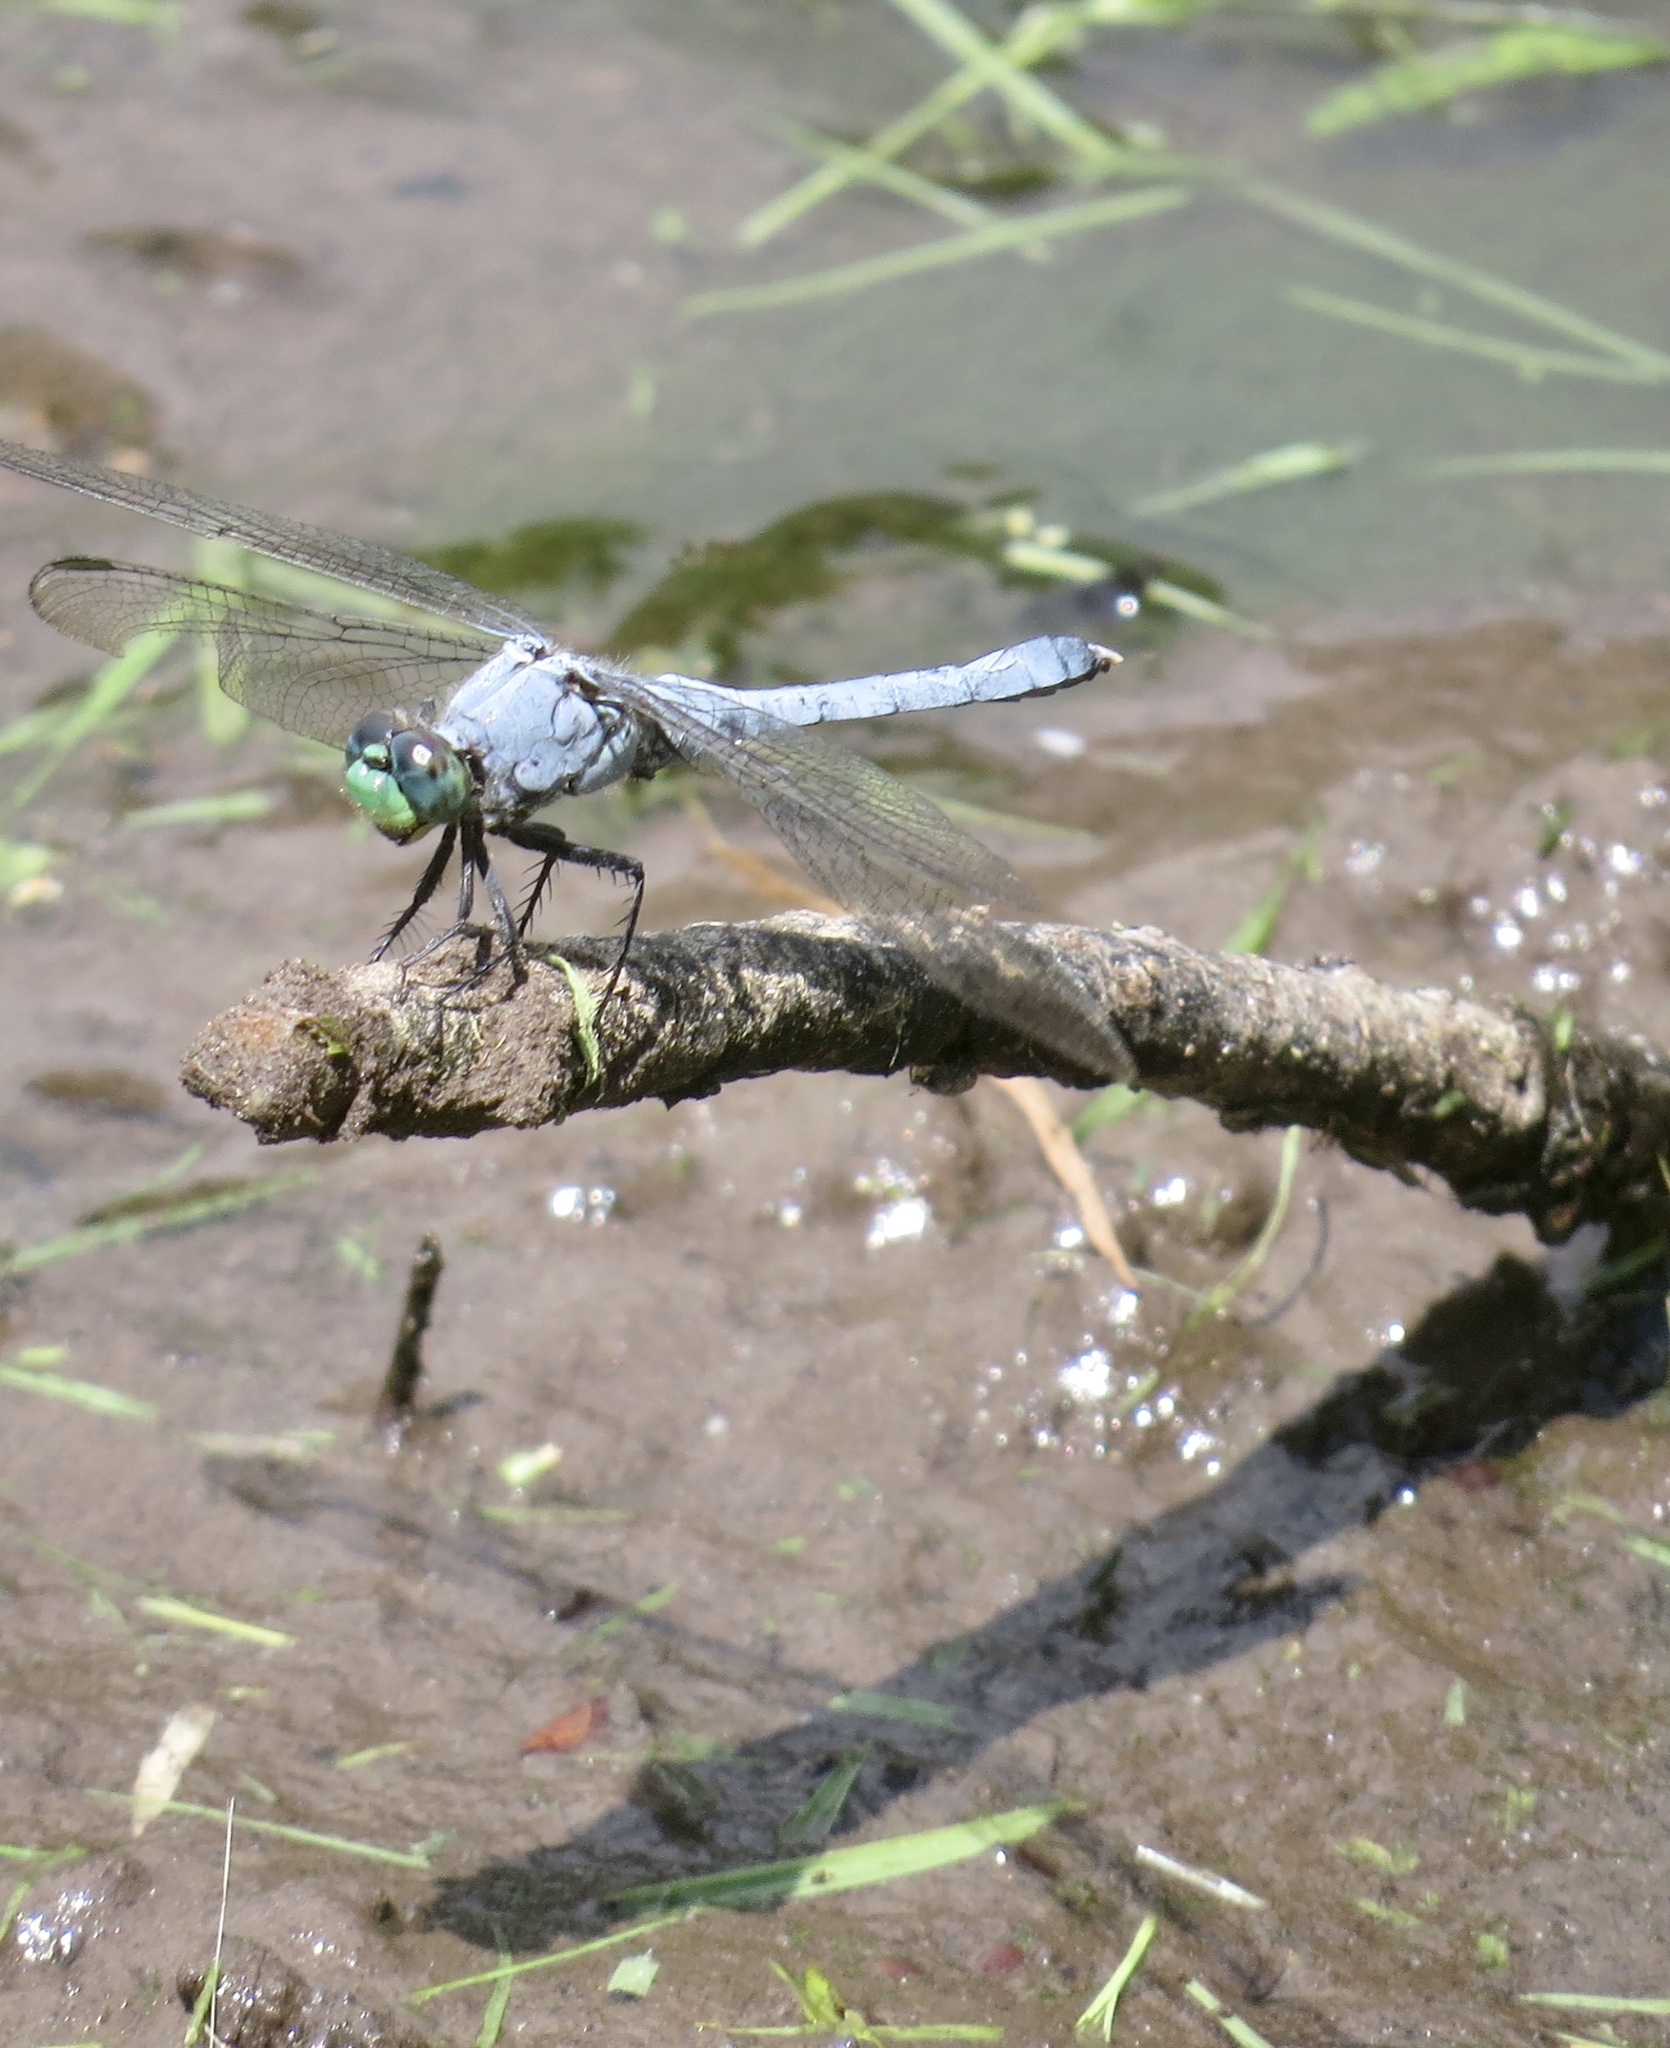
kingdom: Animalia
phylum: Arthropoda
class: Insecta
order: Odonata
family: Libellulidae
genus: Erythemis
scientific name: Erythemis simplicicollis
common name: Eastern pondhawk
